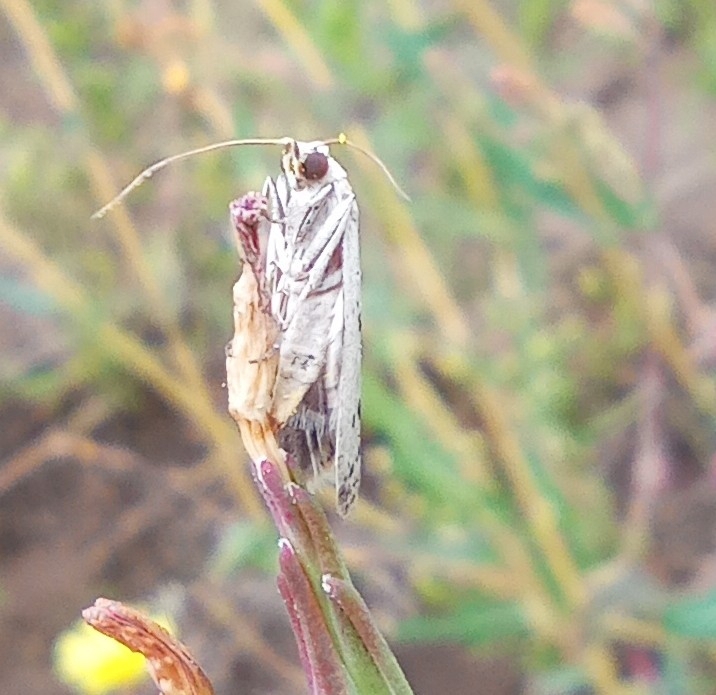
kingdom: Animalia
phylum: Arthropoda
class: Insecta
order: Lepidoptera
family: Pyralidae
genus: Phycitodes
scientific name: Phycitodes lacteella
